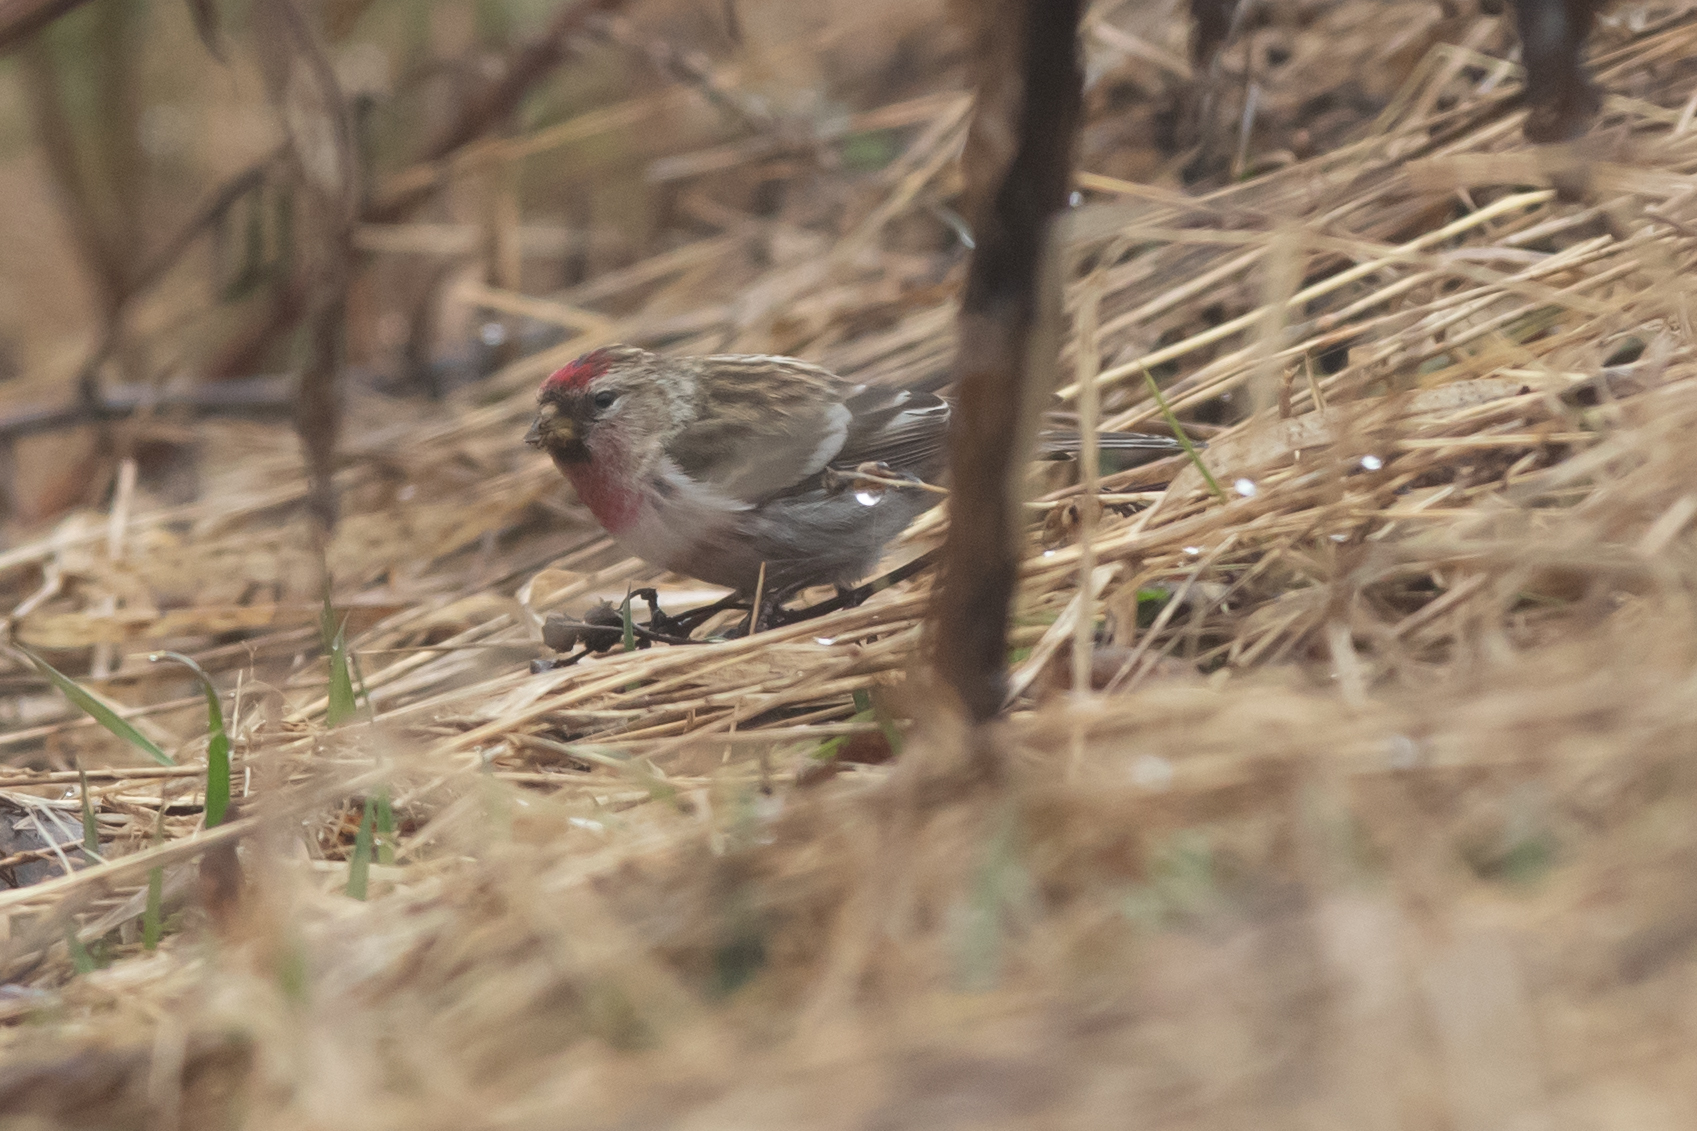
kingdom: Animalia
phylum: Chordata
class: Aves
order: Passeriformes
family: Fringillidae
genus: Acanthis
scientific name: Acanthis flammea
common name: Common redpoll
